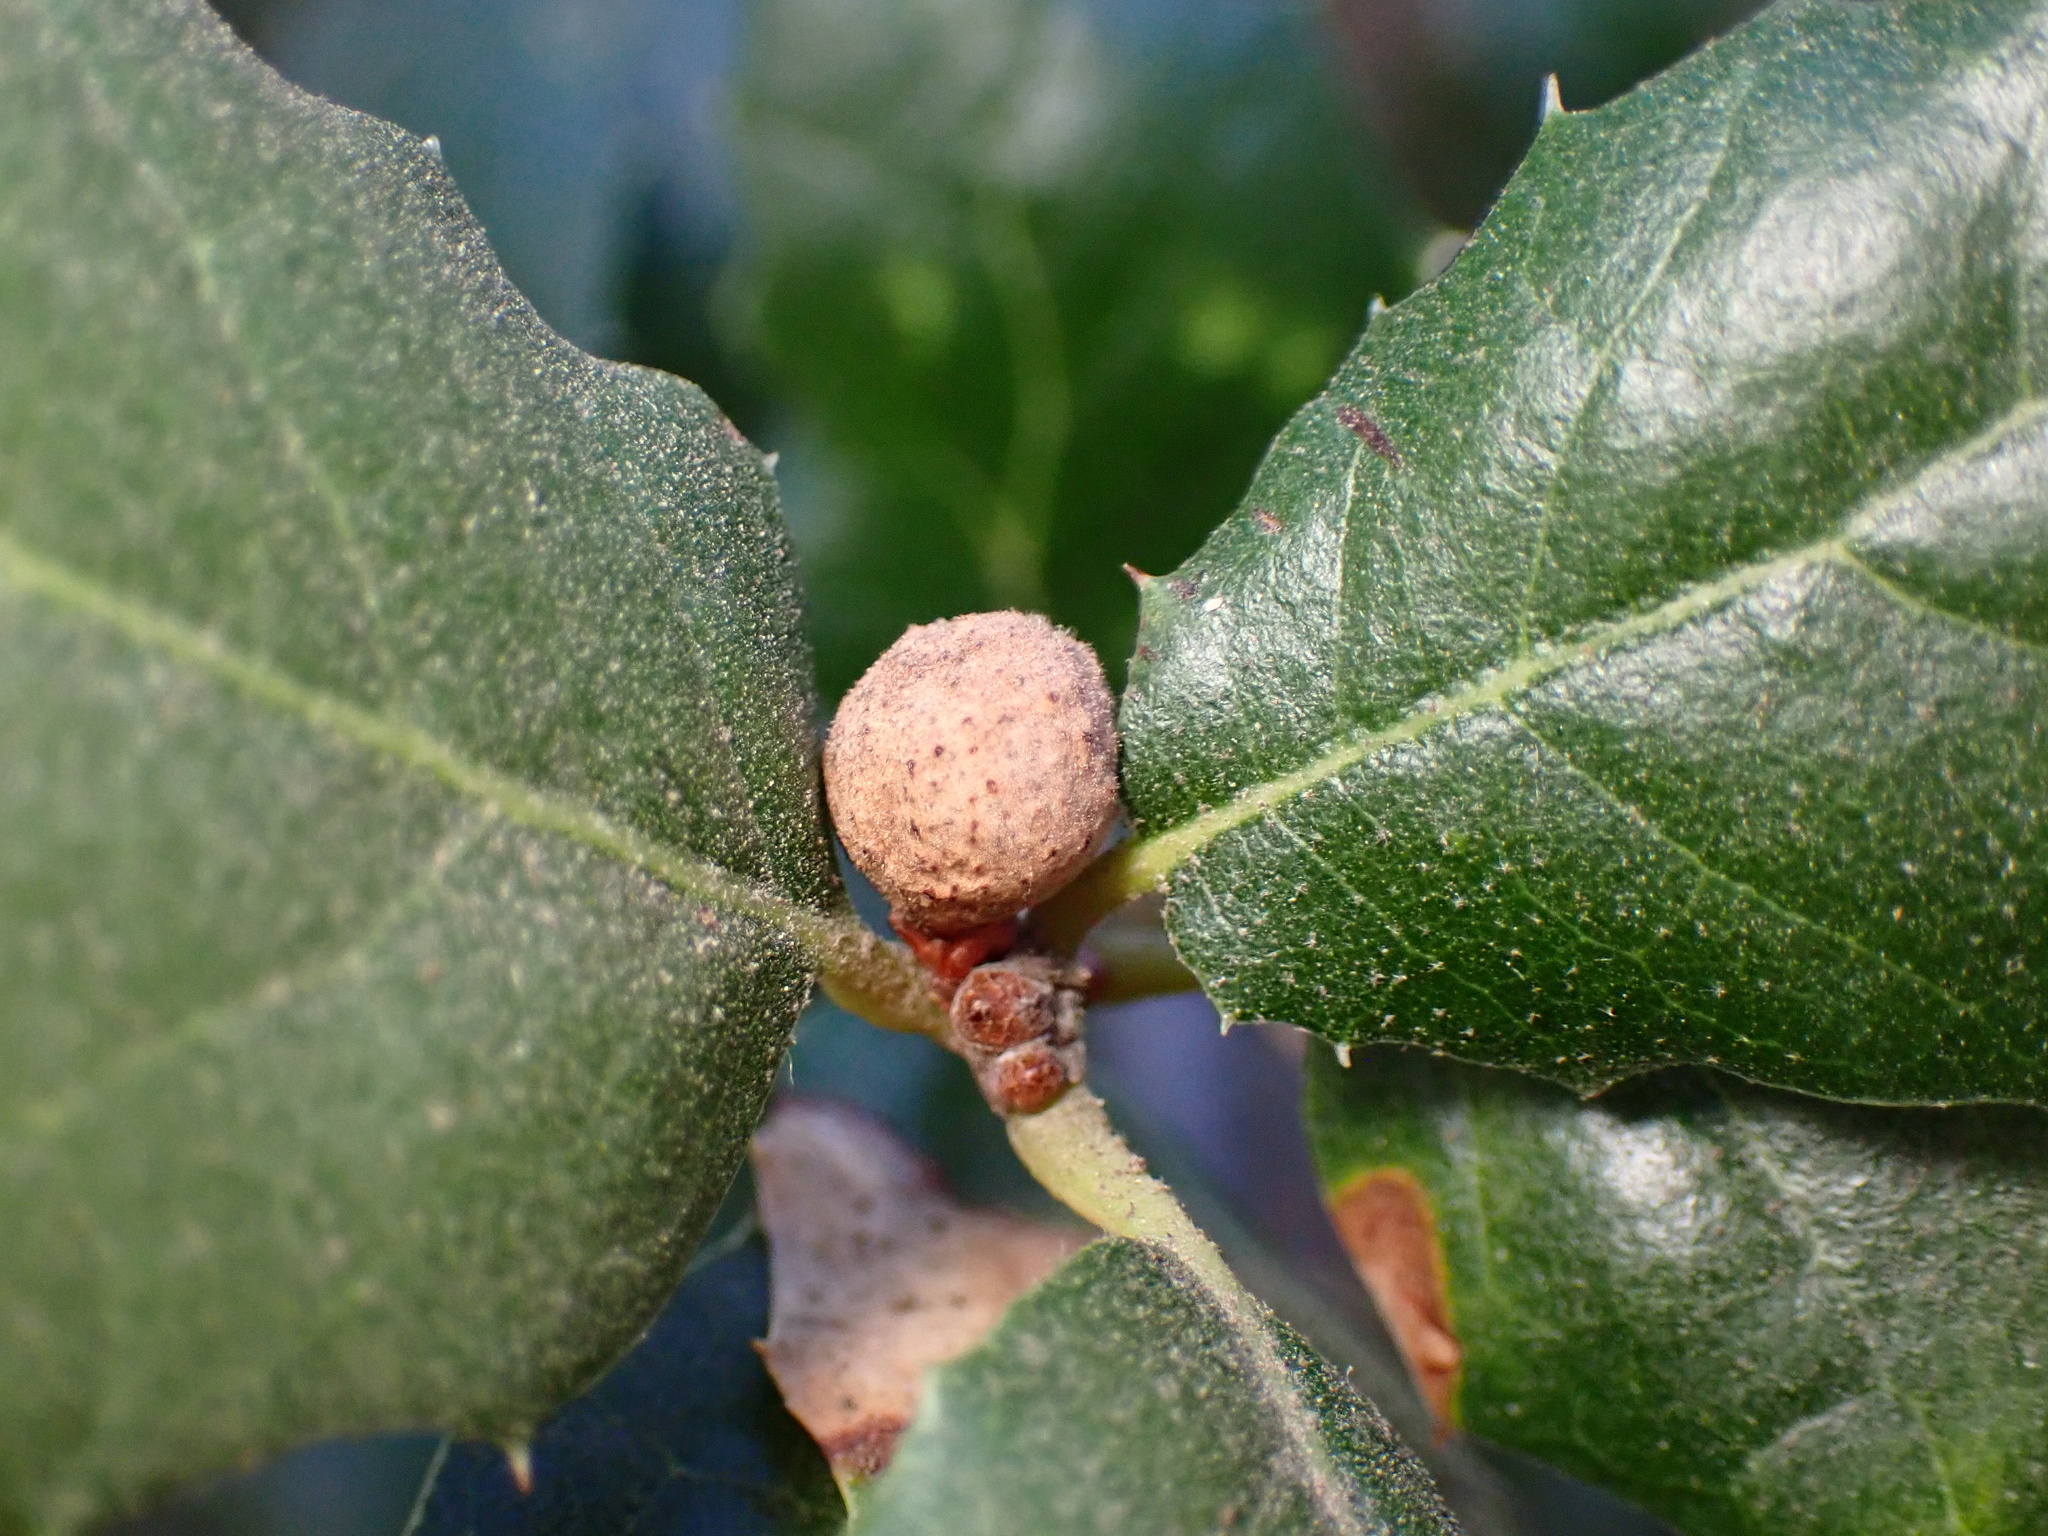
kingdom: Animalia
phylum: Arthropoda
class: Insecta
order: Hymenoptera
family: Cynipidae
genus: Callirhytis
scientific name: Callirhytis
